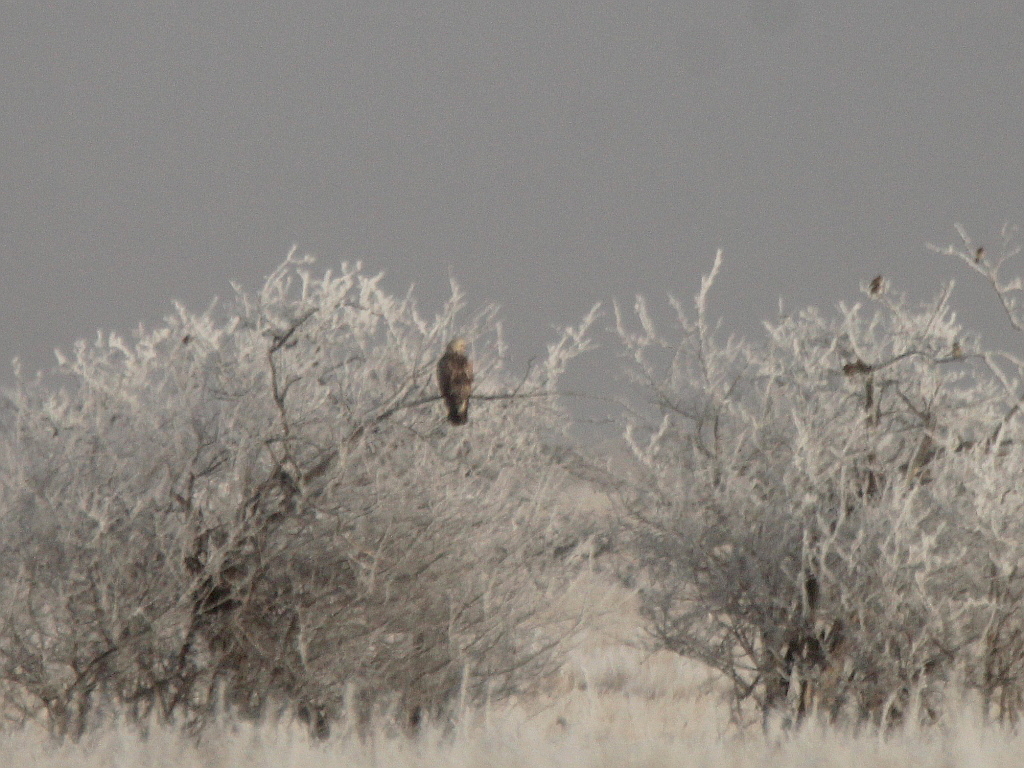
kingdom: Animalia
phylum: Chordata
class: Aves
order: Accipitriformes
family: Accipitridae
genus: Buteo
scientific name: Buteo lagopus
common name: Rough-legged buzzard
